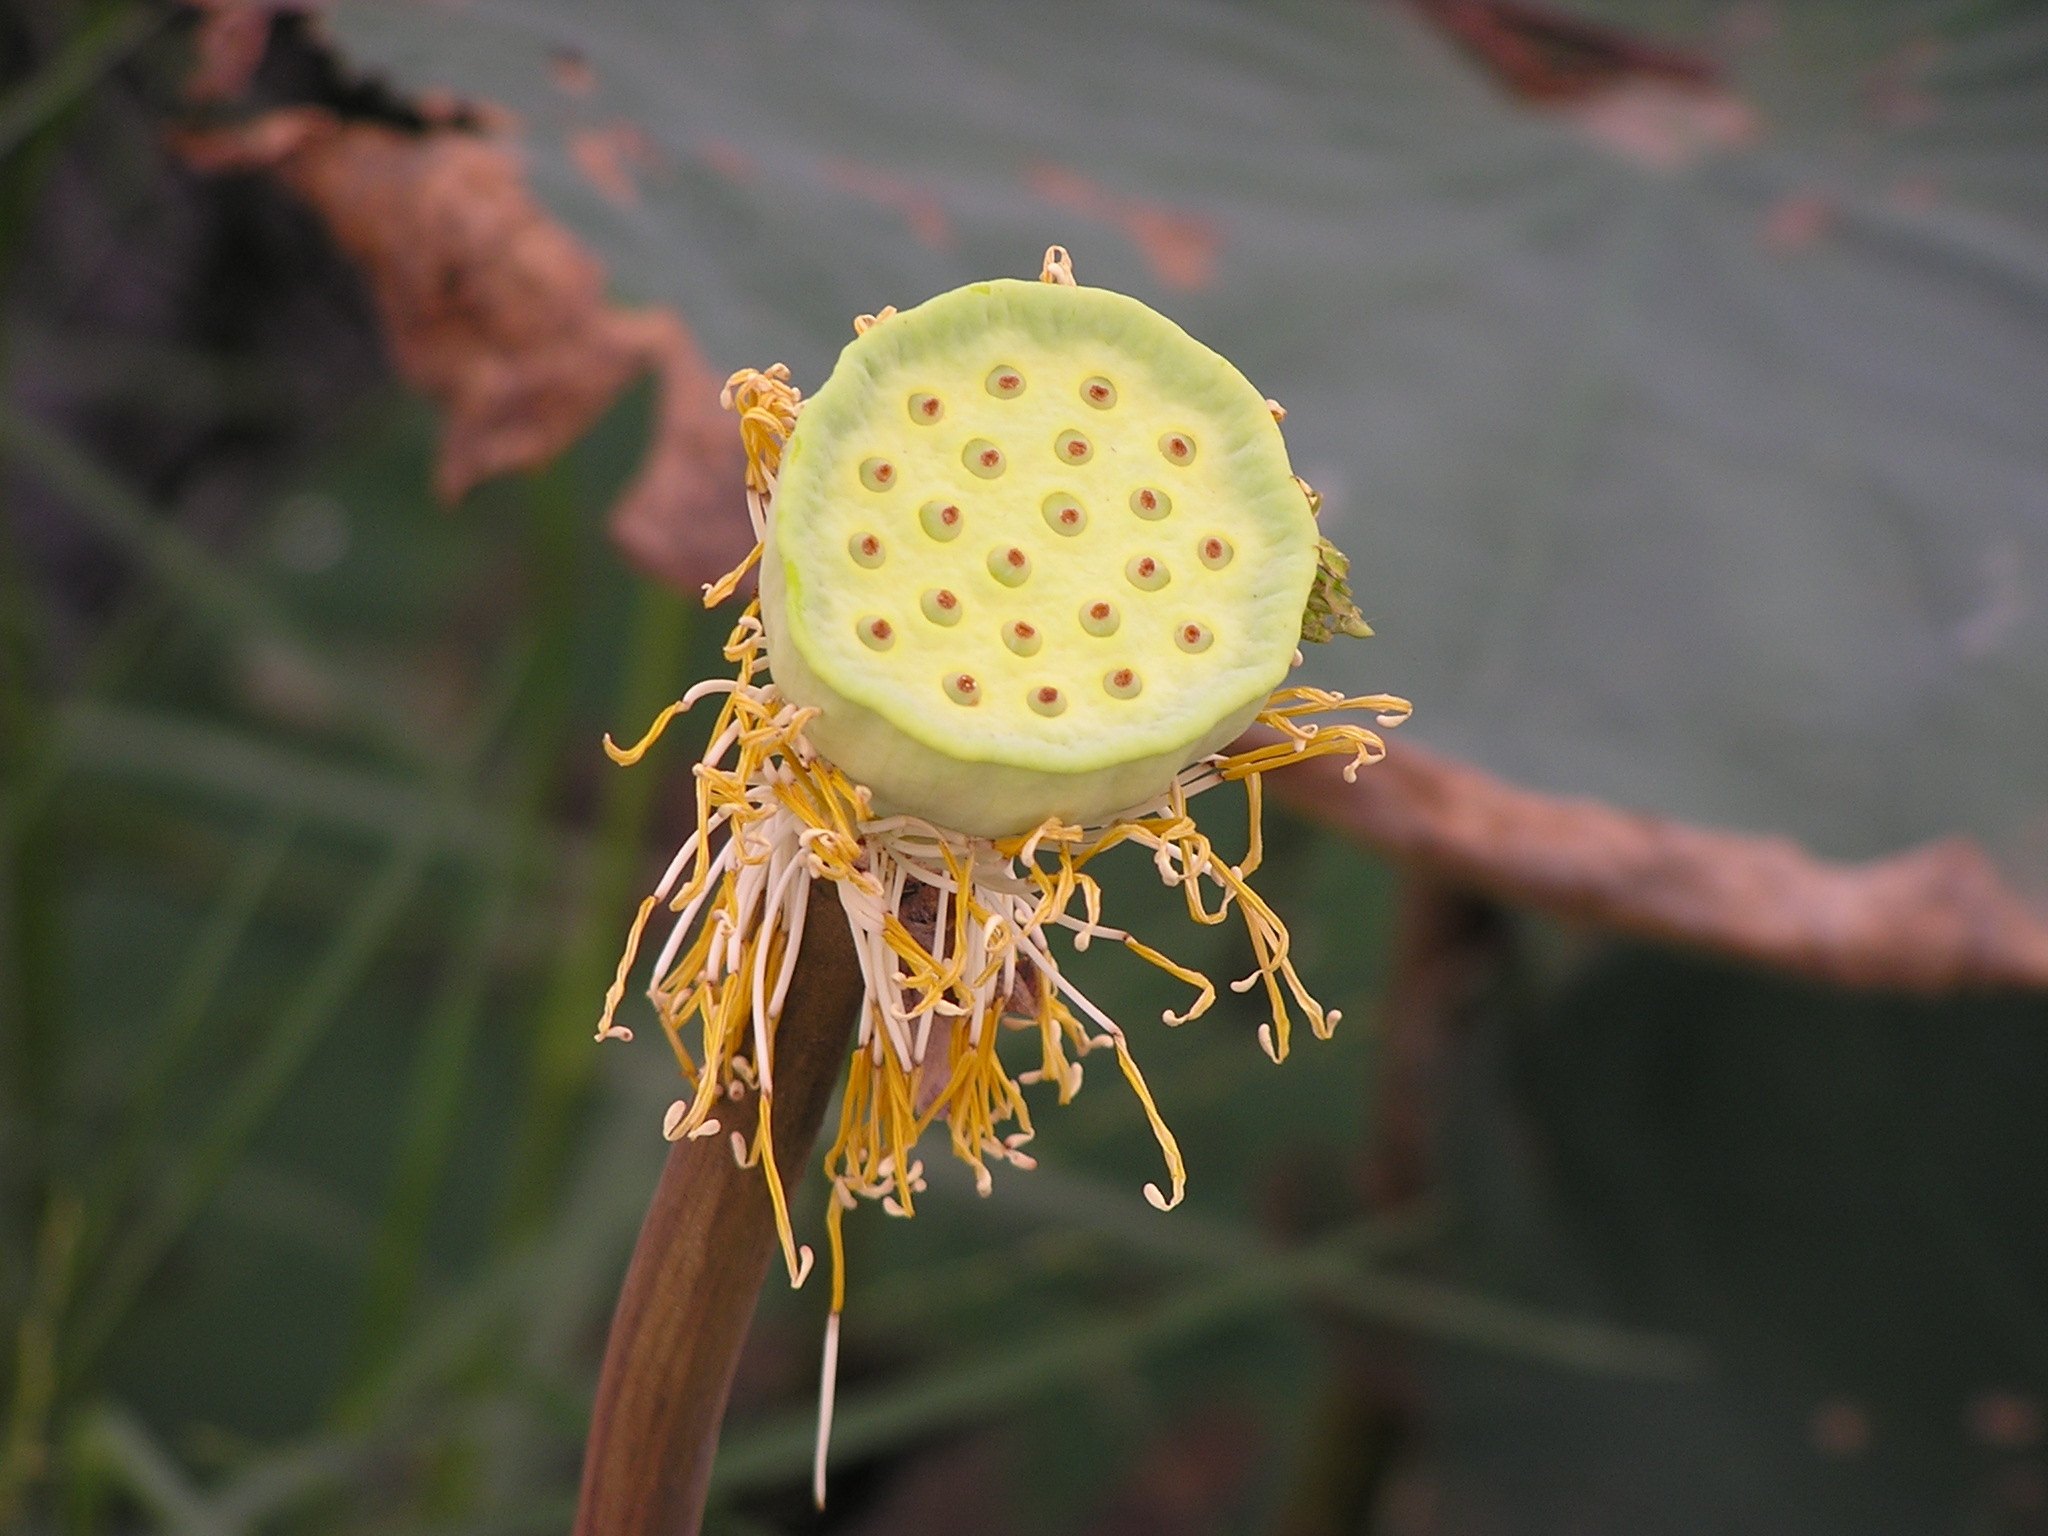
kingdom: Plantae
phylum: Tracheophyta
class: Magnoliopsida
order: Proteales
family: Nelumbonaceae
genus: Nelumbo
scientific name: Nelumbo nucifera
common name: Sacred lotus
